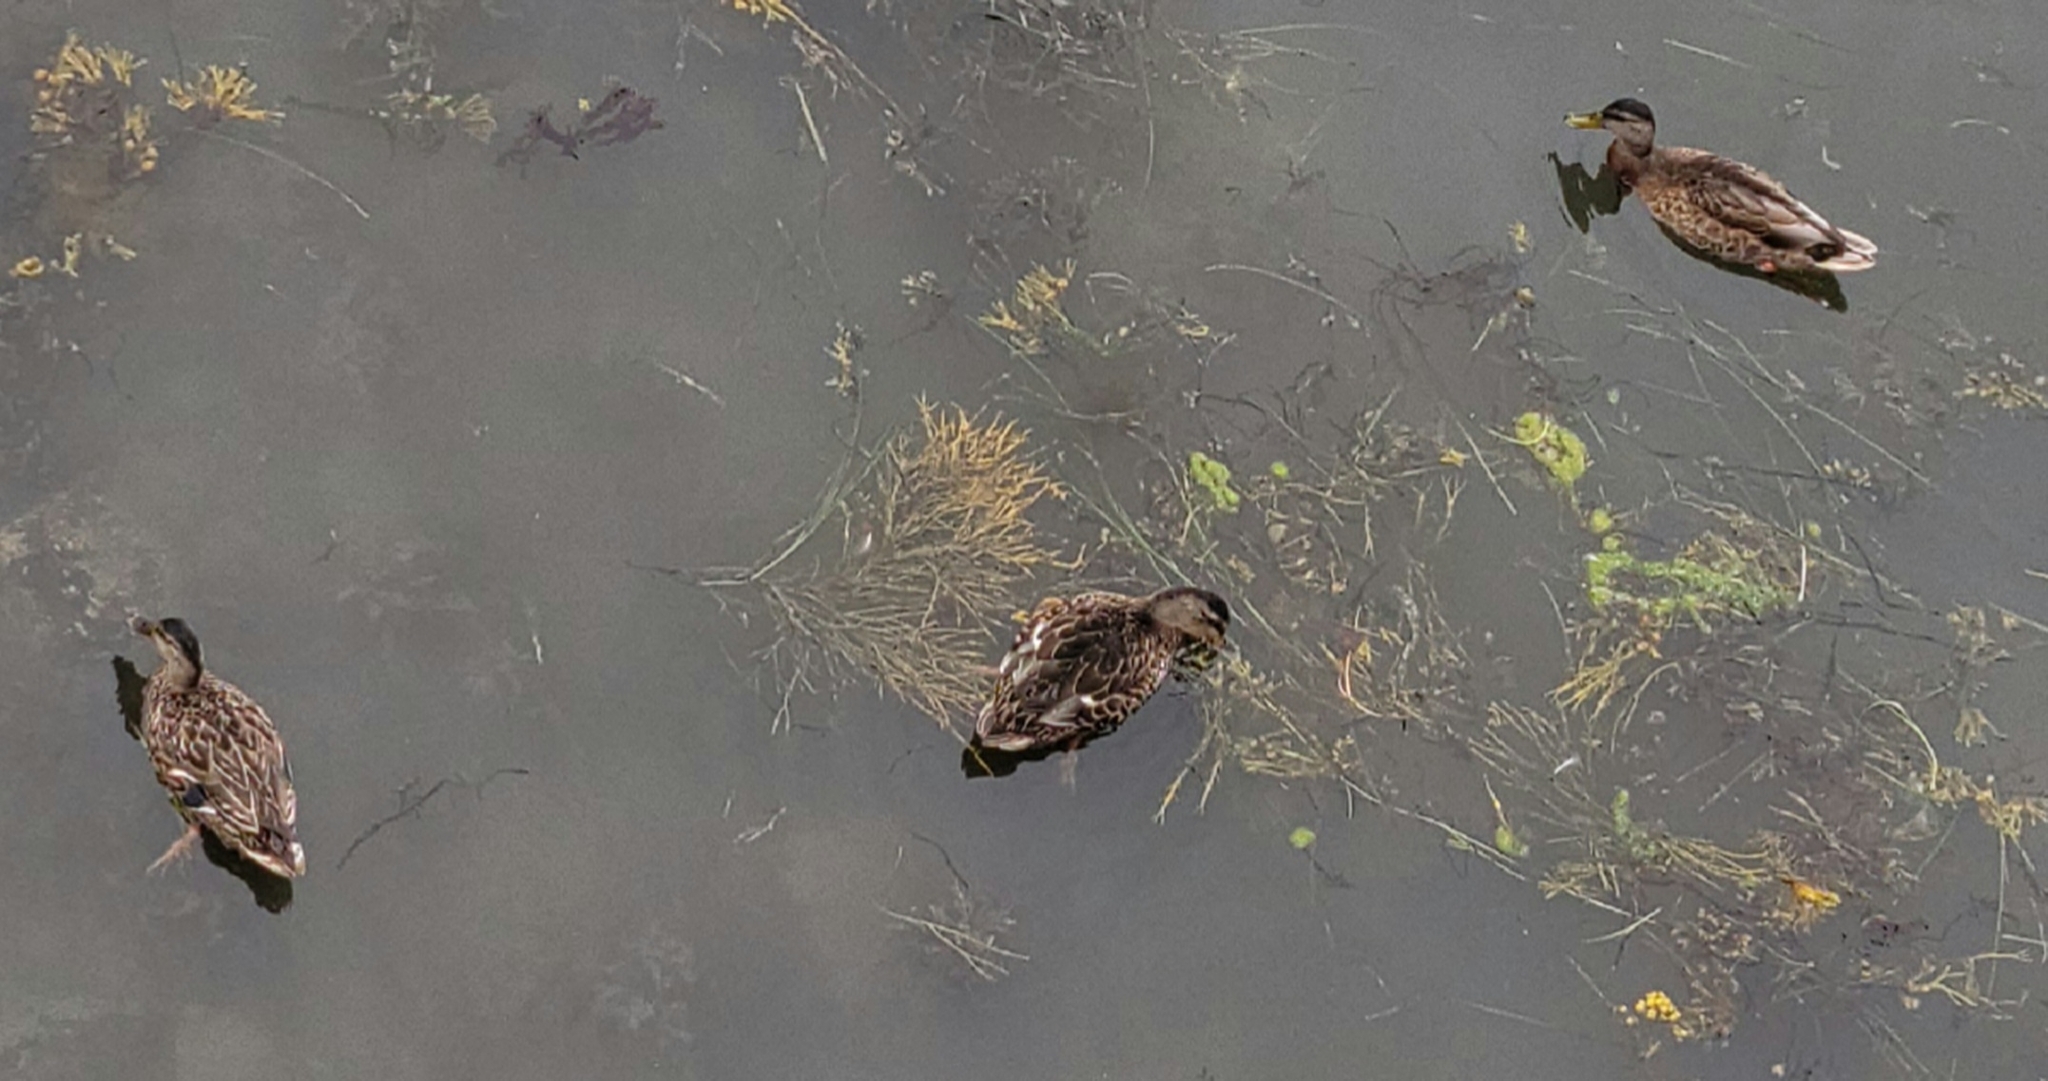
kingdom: Animalia
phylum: Chordata
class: Aves
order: Anseriformes
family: Anatidae
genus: Anas
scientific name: Anas platyrhynchos
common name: Mallard
